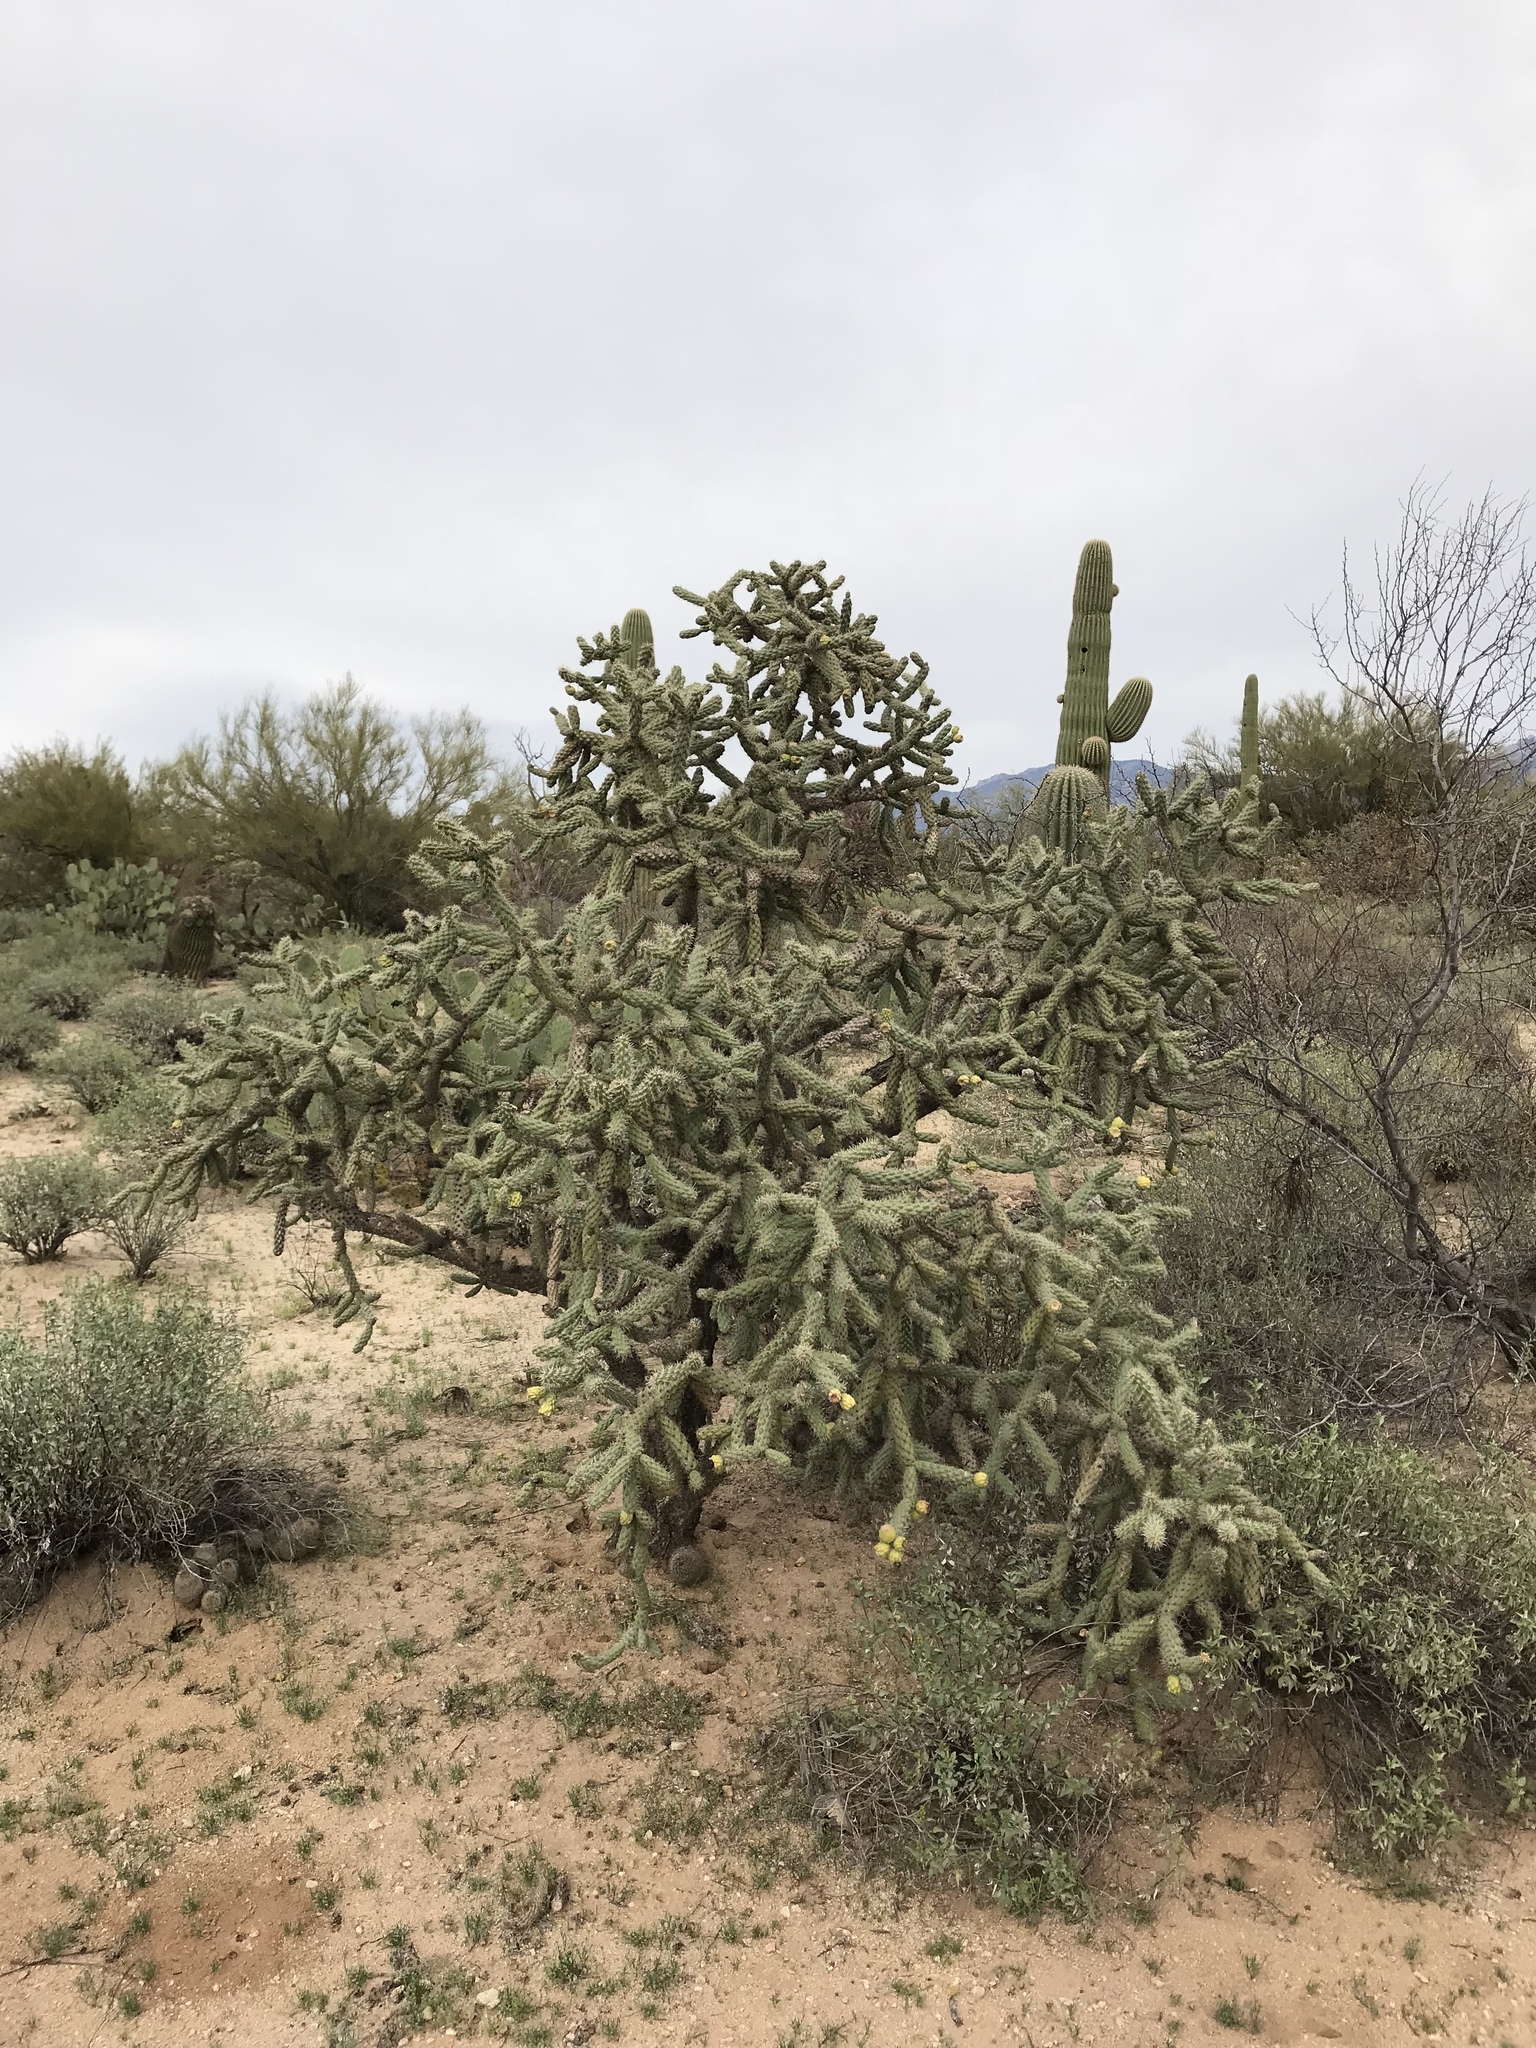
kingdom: Plantae
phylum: Tracheophyta
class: Magnoliopsida
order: Caryophyllales
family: Cactaceae
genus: Cylindropuntia
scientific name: Cylindropuntia imbricata
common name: Candelabrum cactus
